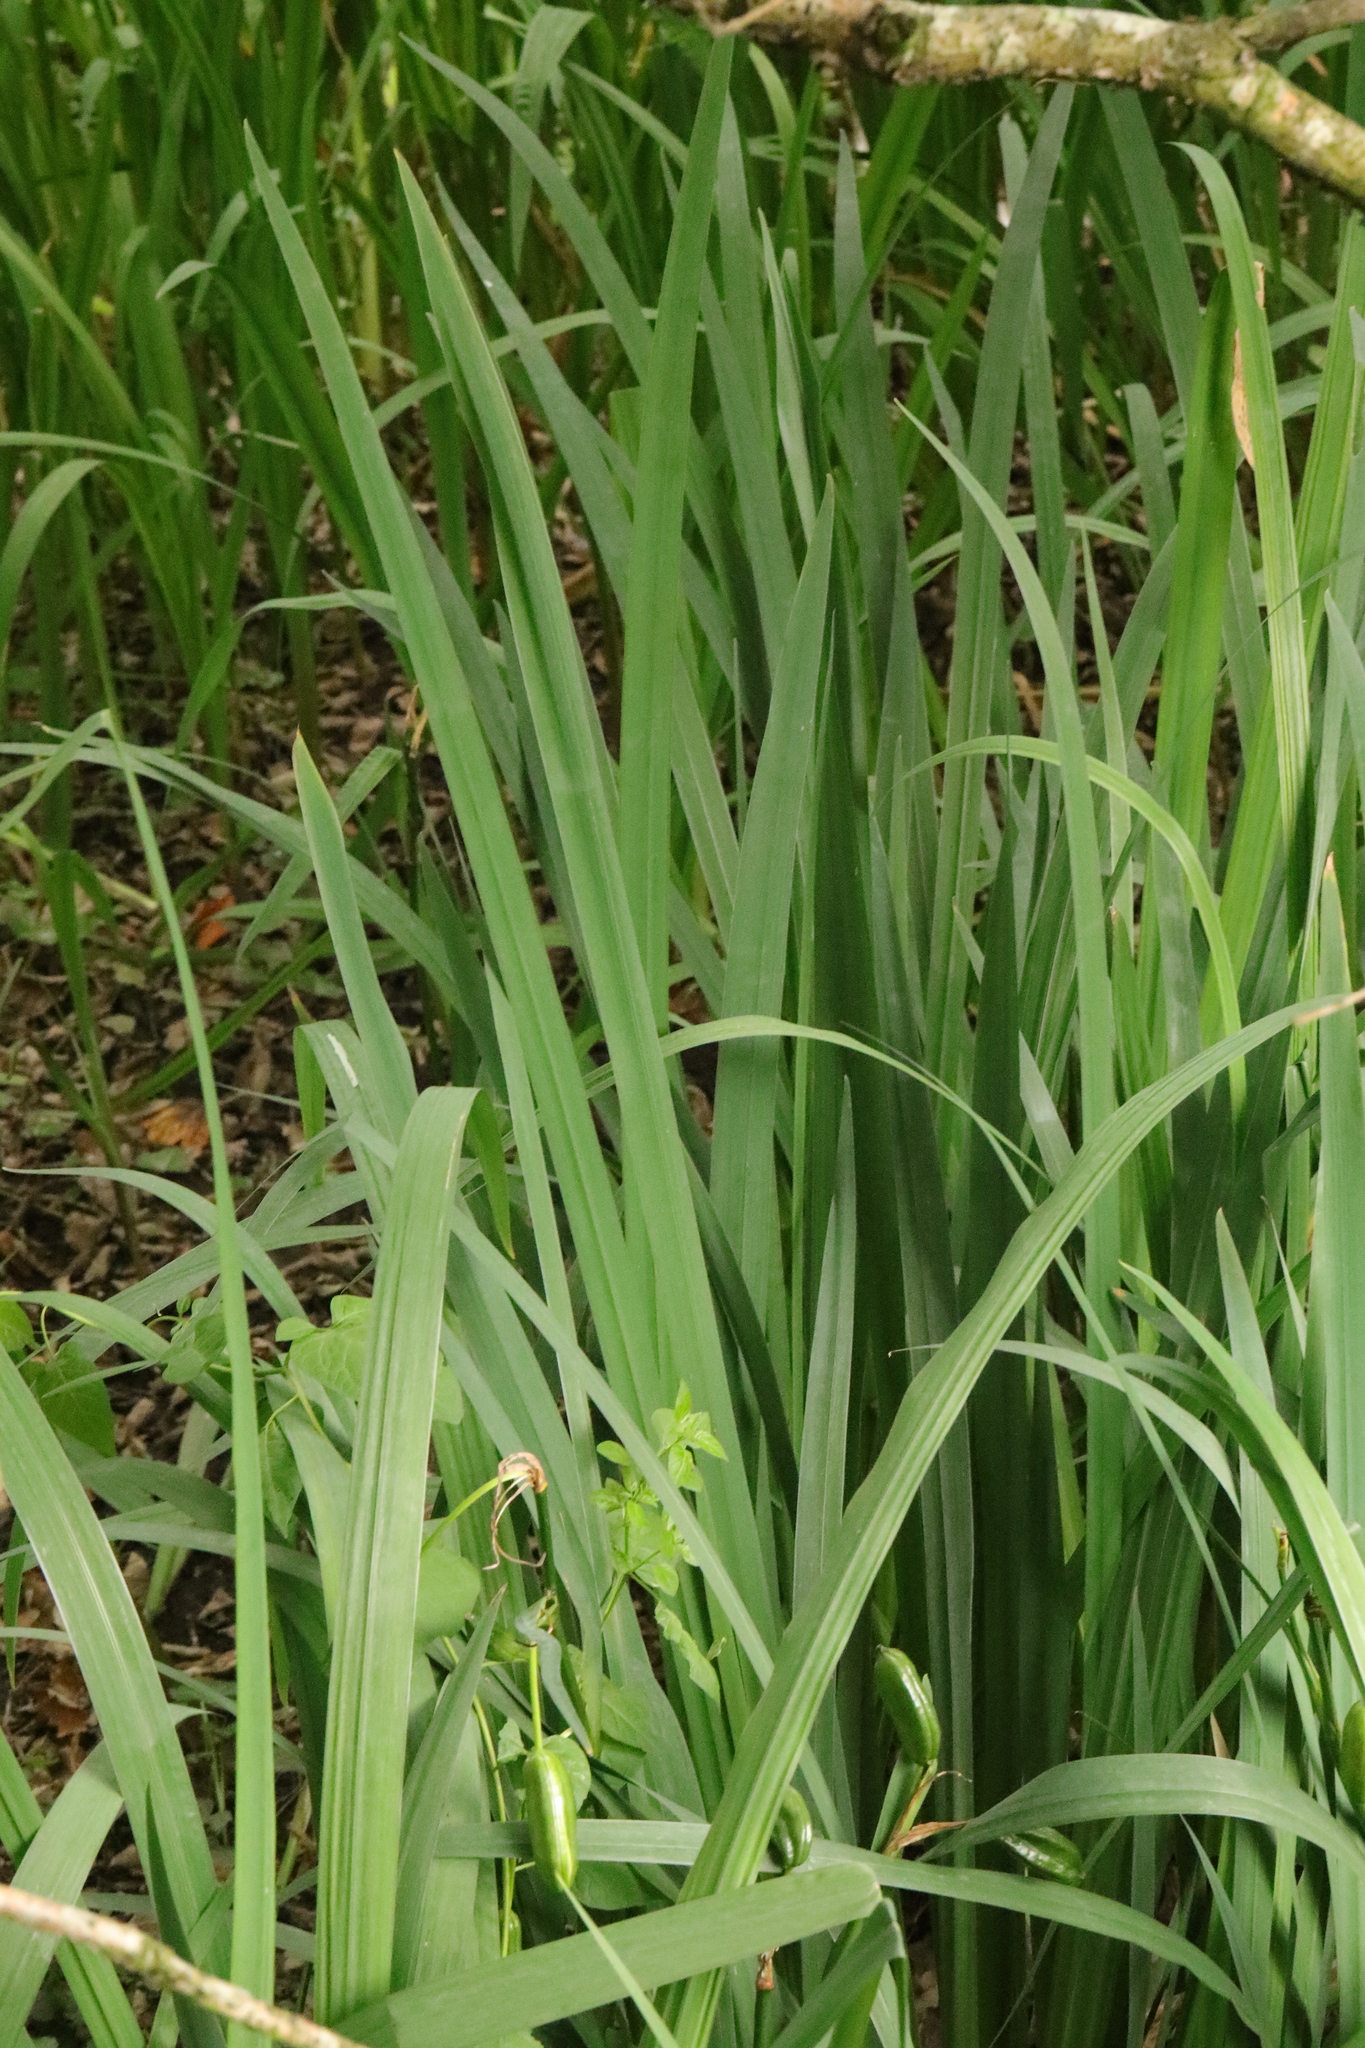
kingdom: Plantae
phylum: Tracheophyta
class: Liliopsida
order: Asparagales
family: Iridaceae
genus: Iris
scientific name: Iris pseudacorus
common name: Yellow flag
